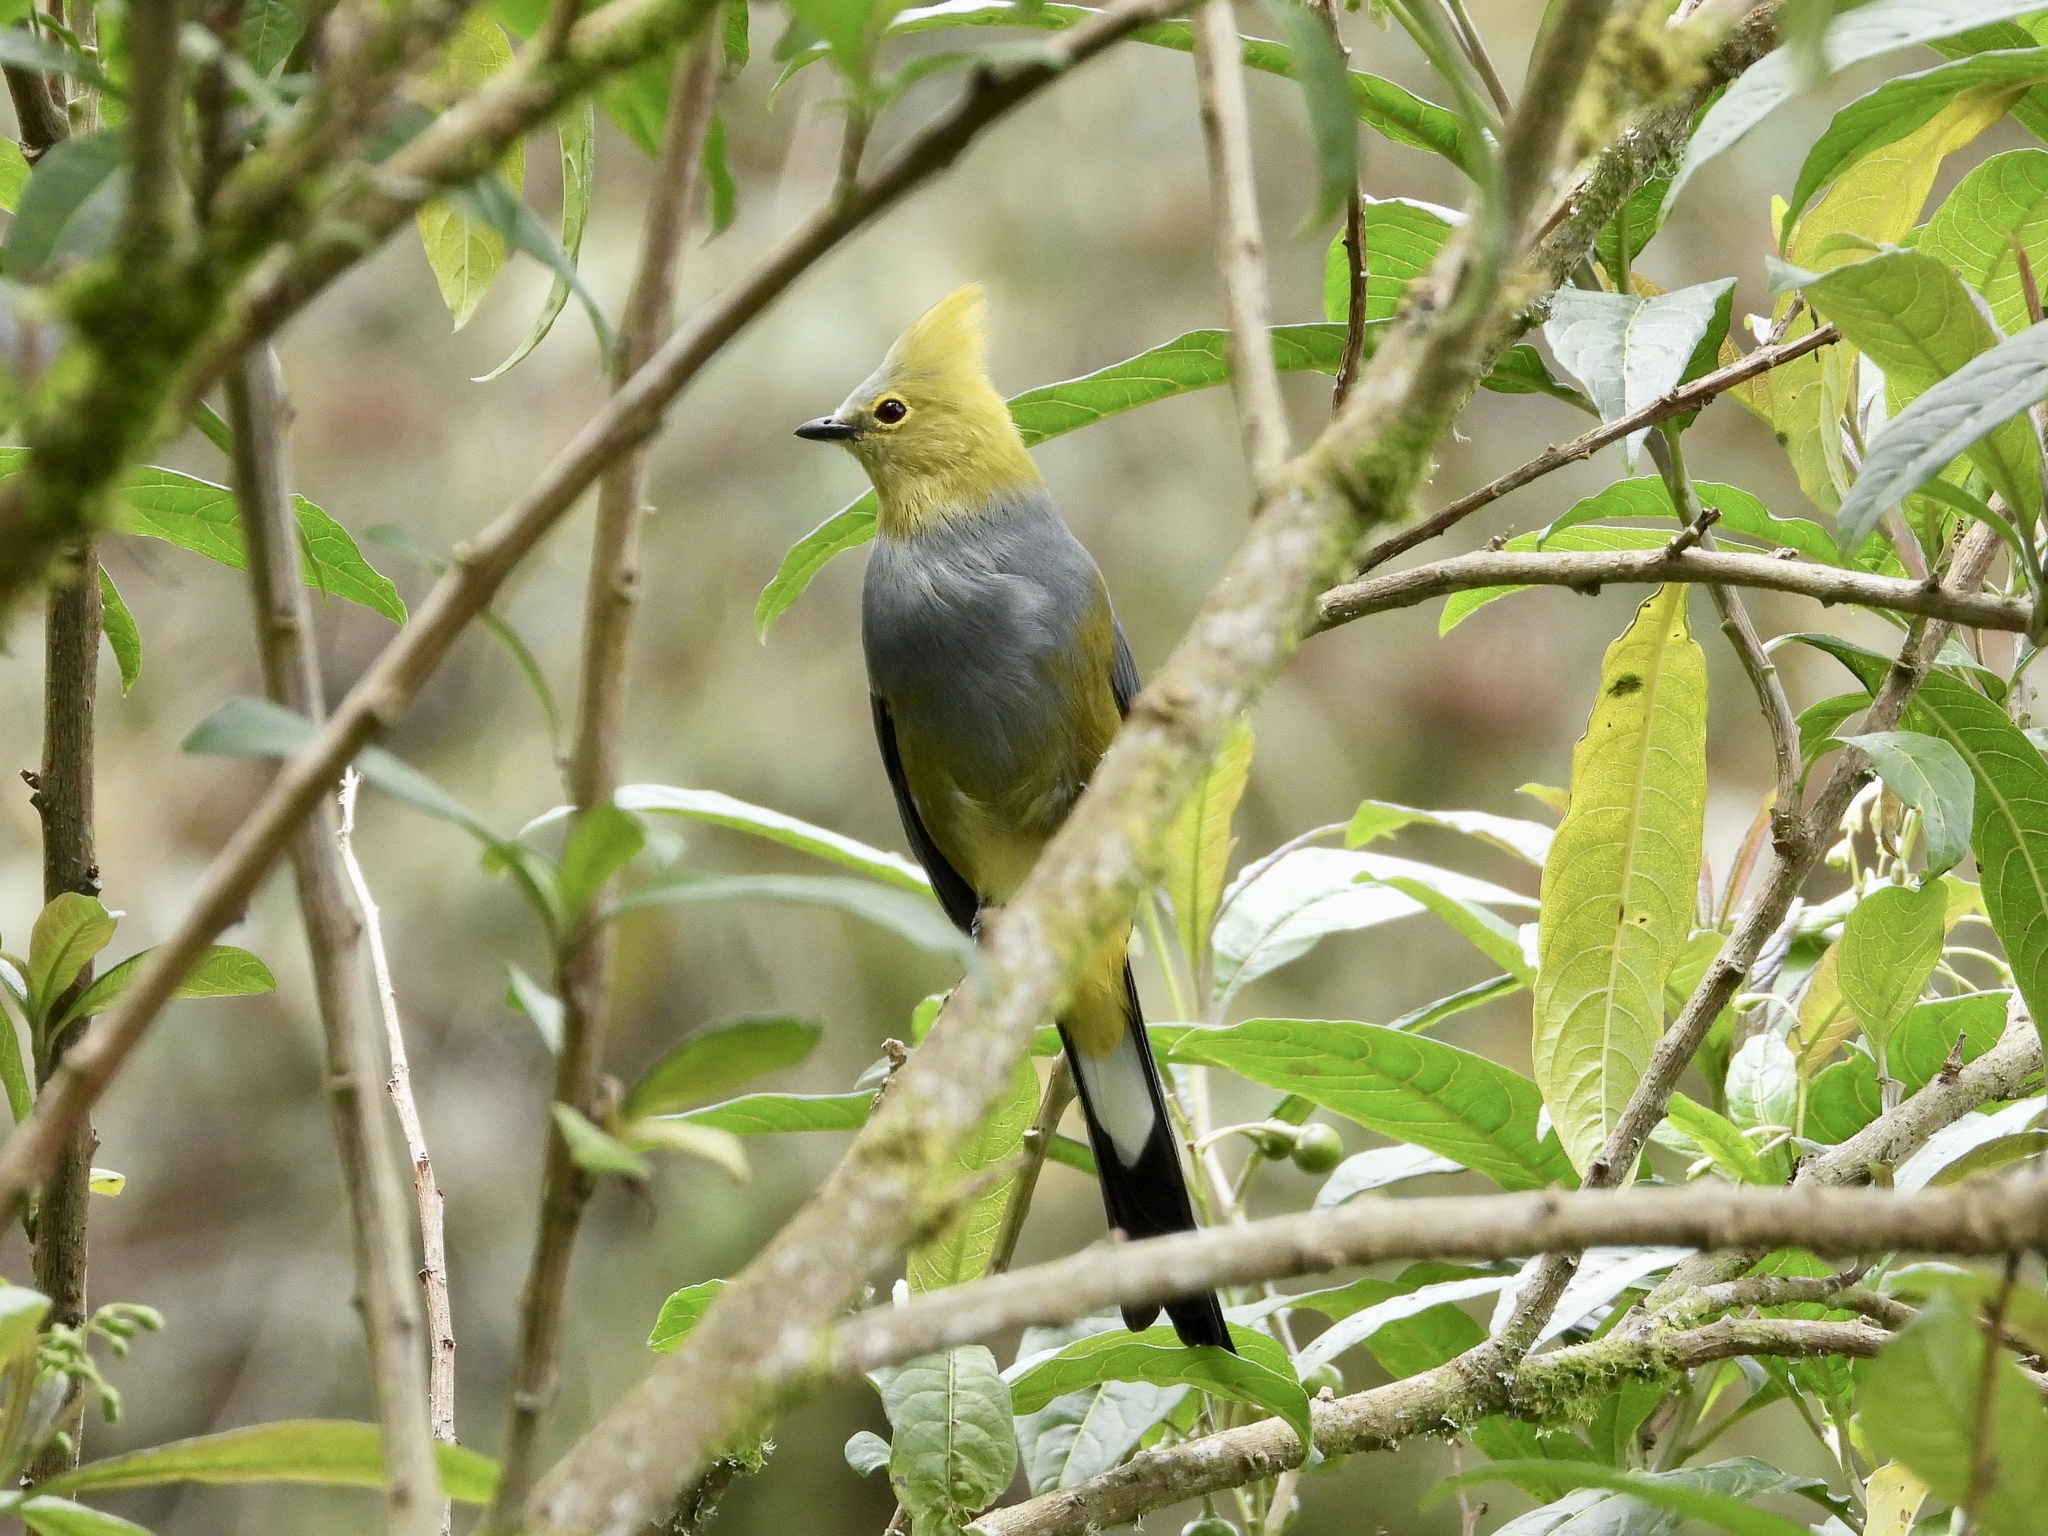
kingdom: Animalia
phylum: Chordata
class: Aves
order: Passeriformes
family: Ptilogonatidae
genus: Ptilogonys
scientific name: Ptilogonys caudatus
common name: Long-tailed silky-flycatcher
